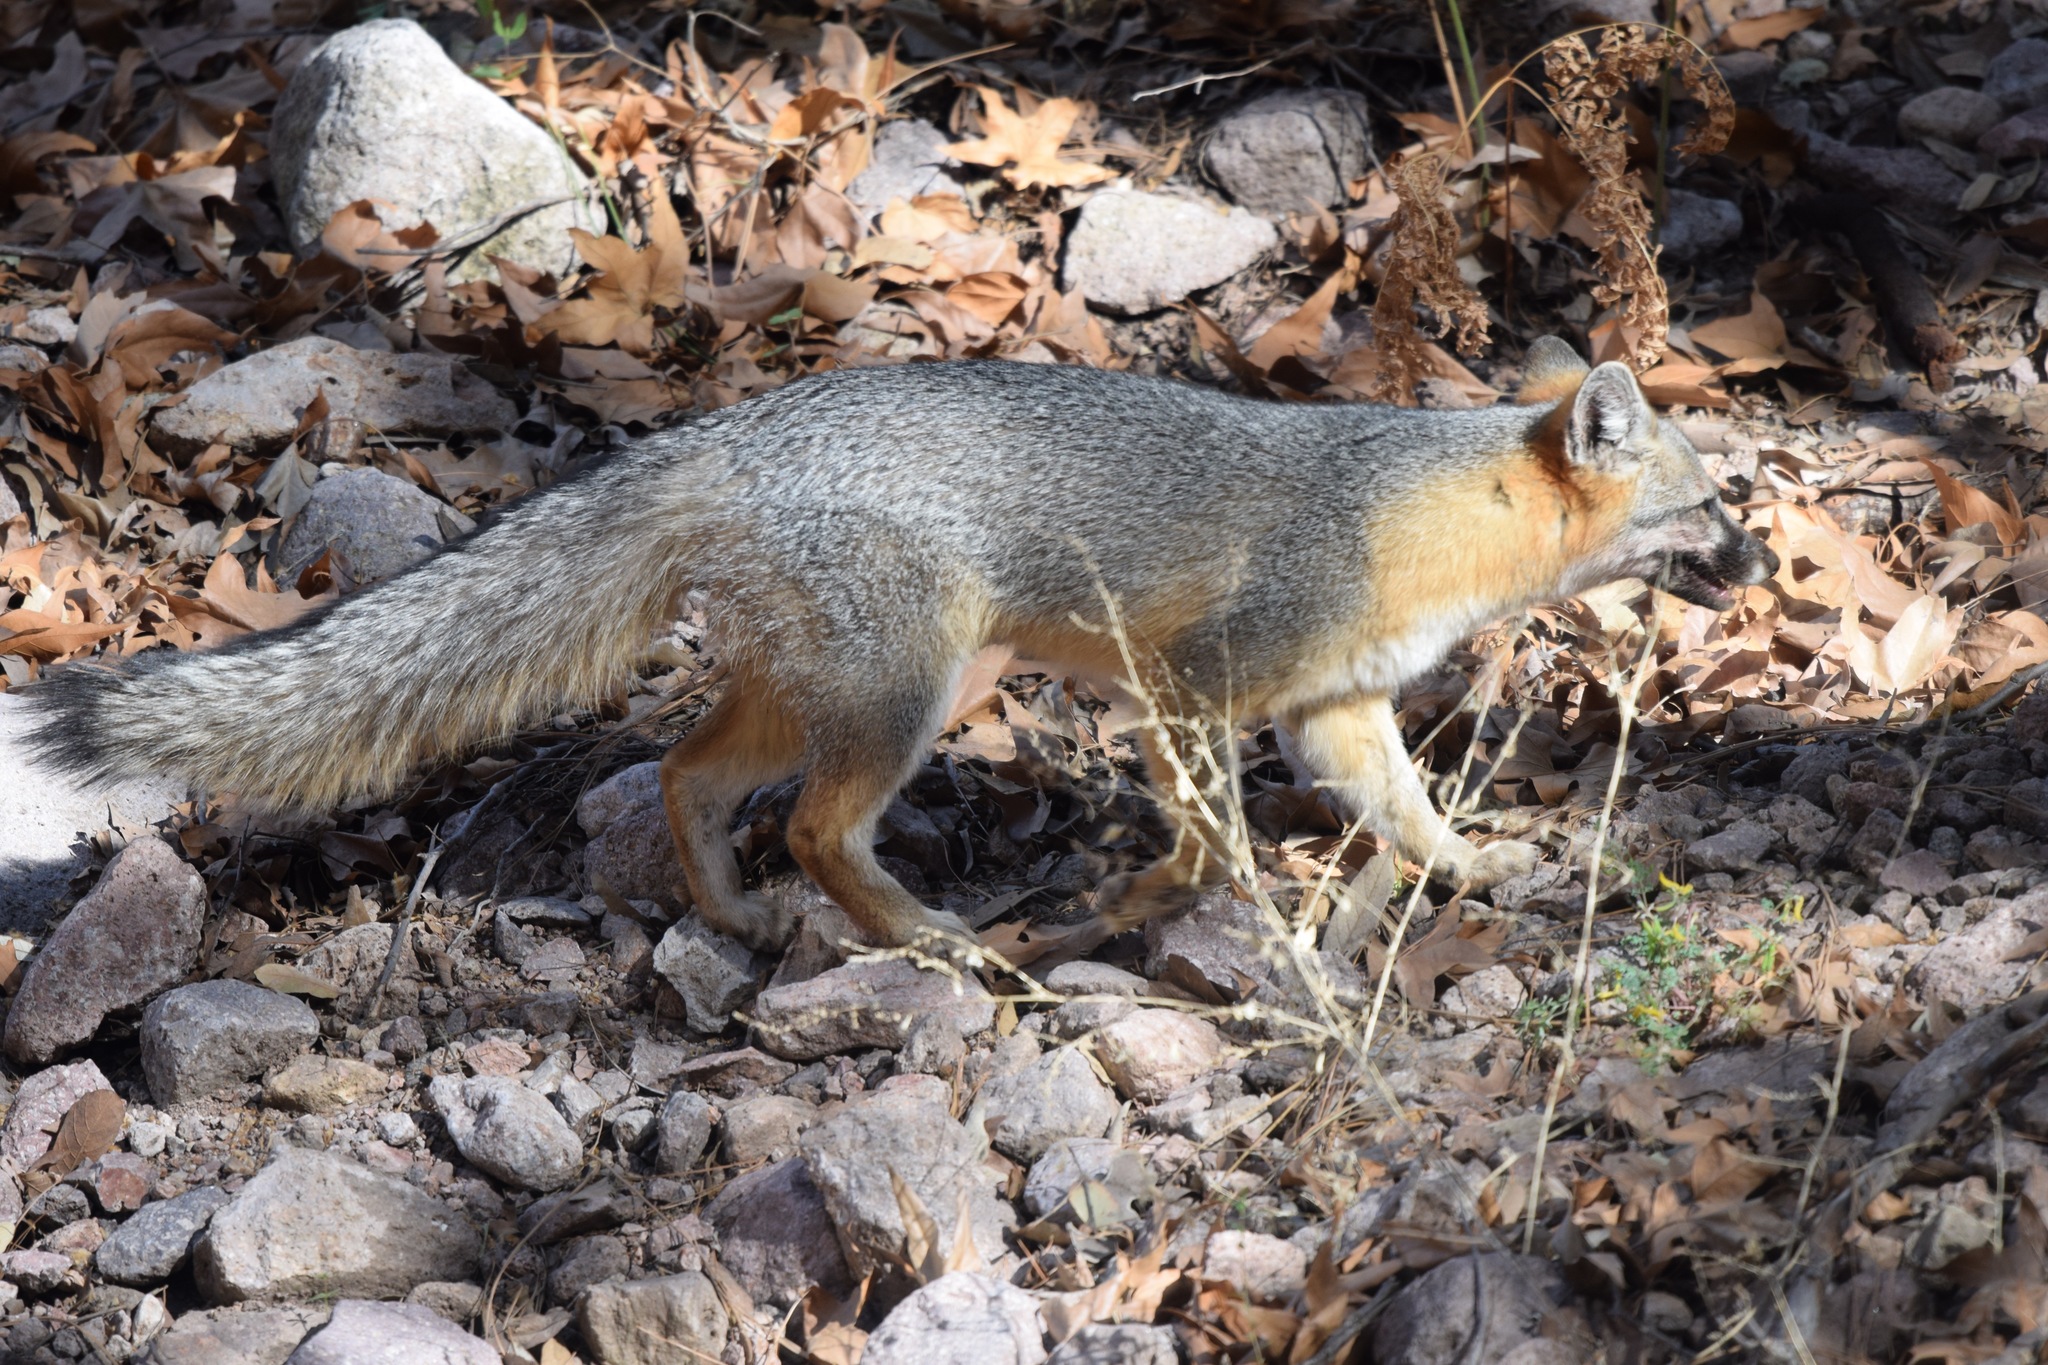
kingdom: Animalia
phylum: Chordata
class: Mammalia
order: Carnivora
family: Canidae
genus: Urocyon
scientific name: Urocyon cinereoargenteus
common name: Gray fox
